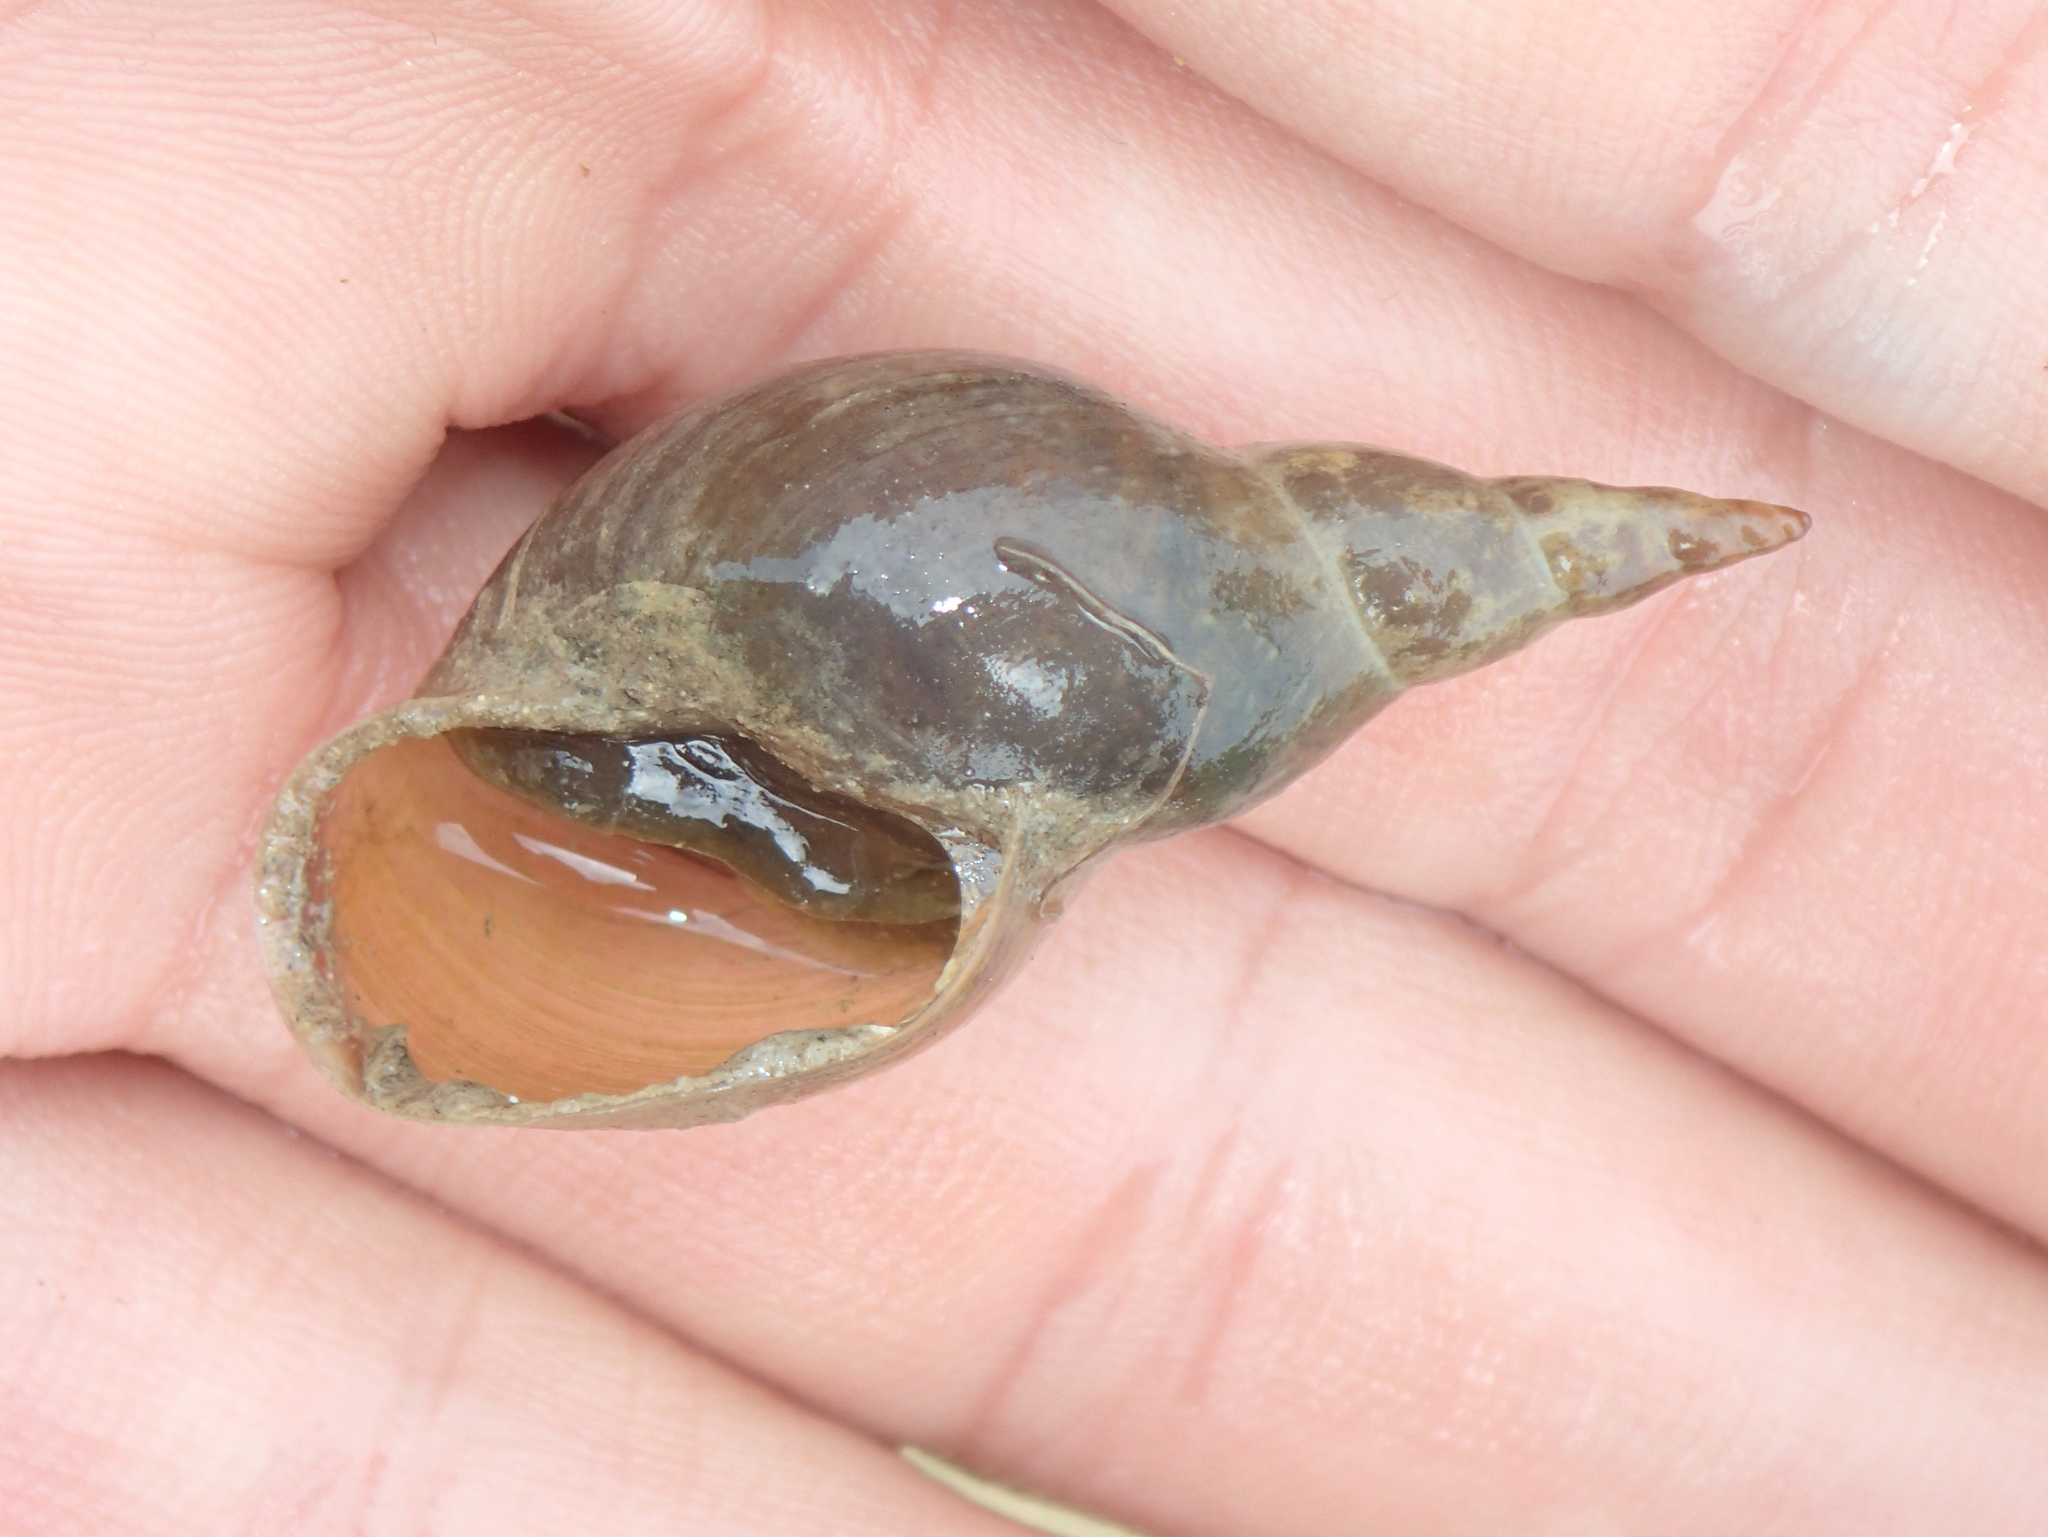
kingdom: Animalia
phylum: Mollusca
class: Gastropoda
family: Lymnaeidae
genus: Lymnaea
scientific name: Lymnaea stagnalis
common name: Great pond snail
